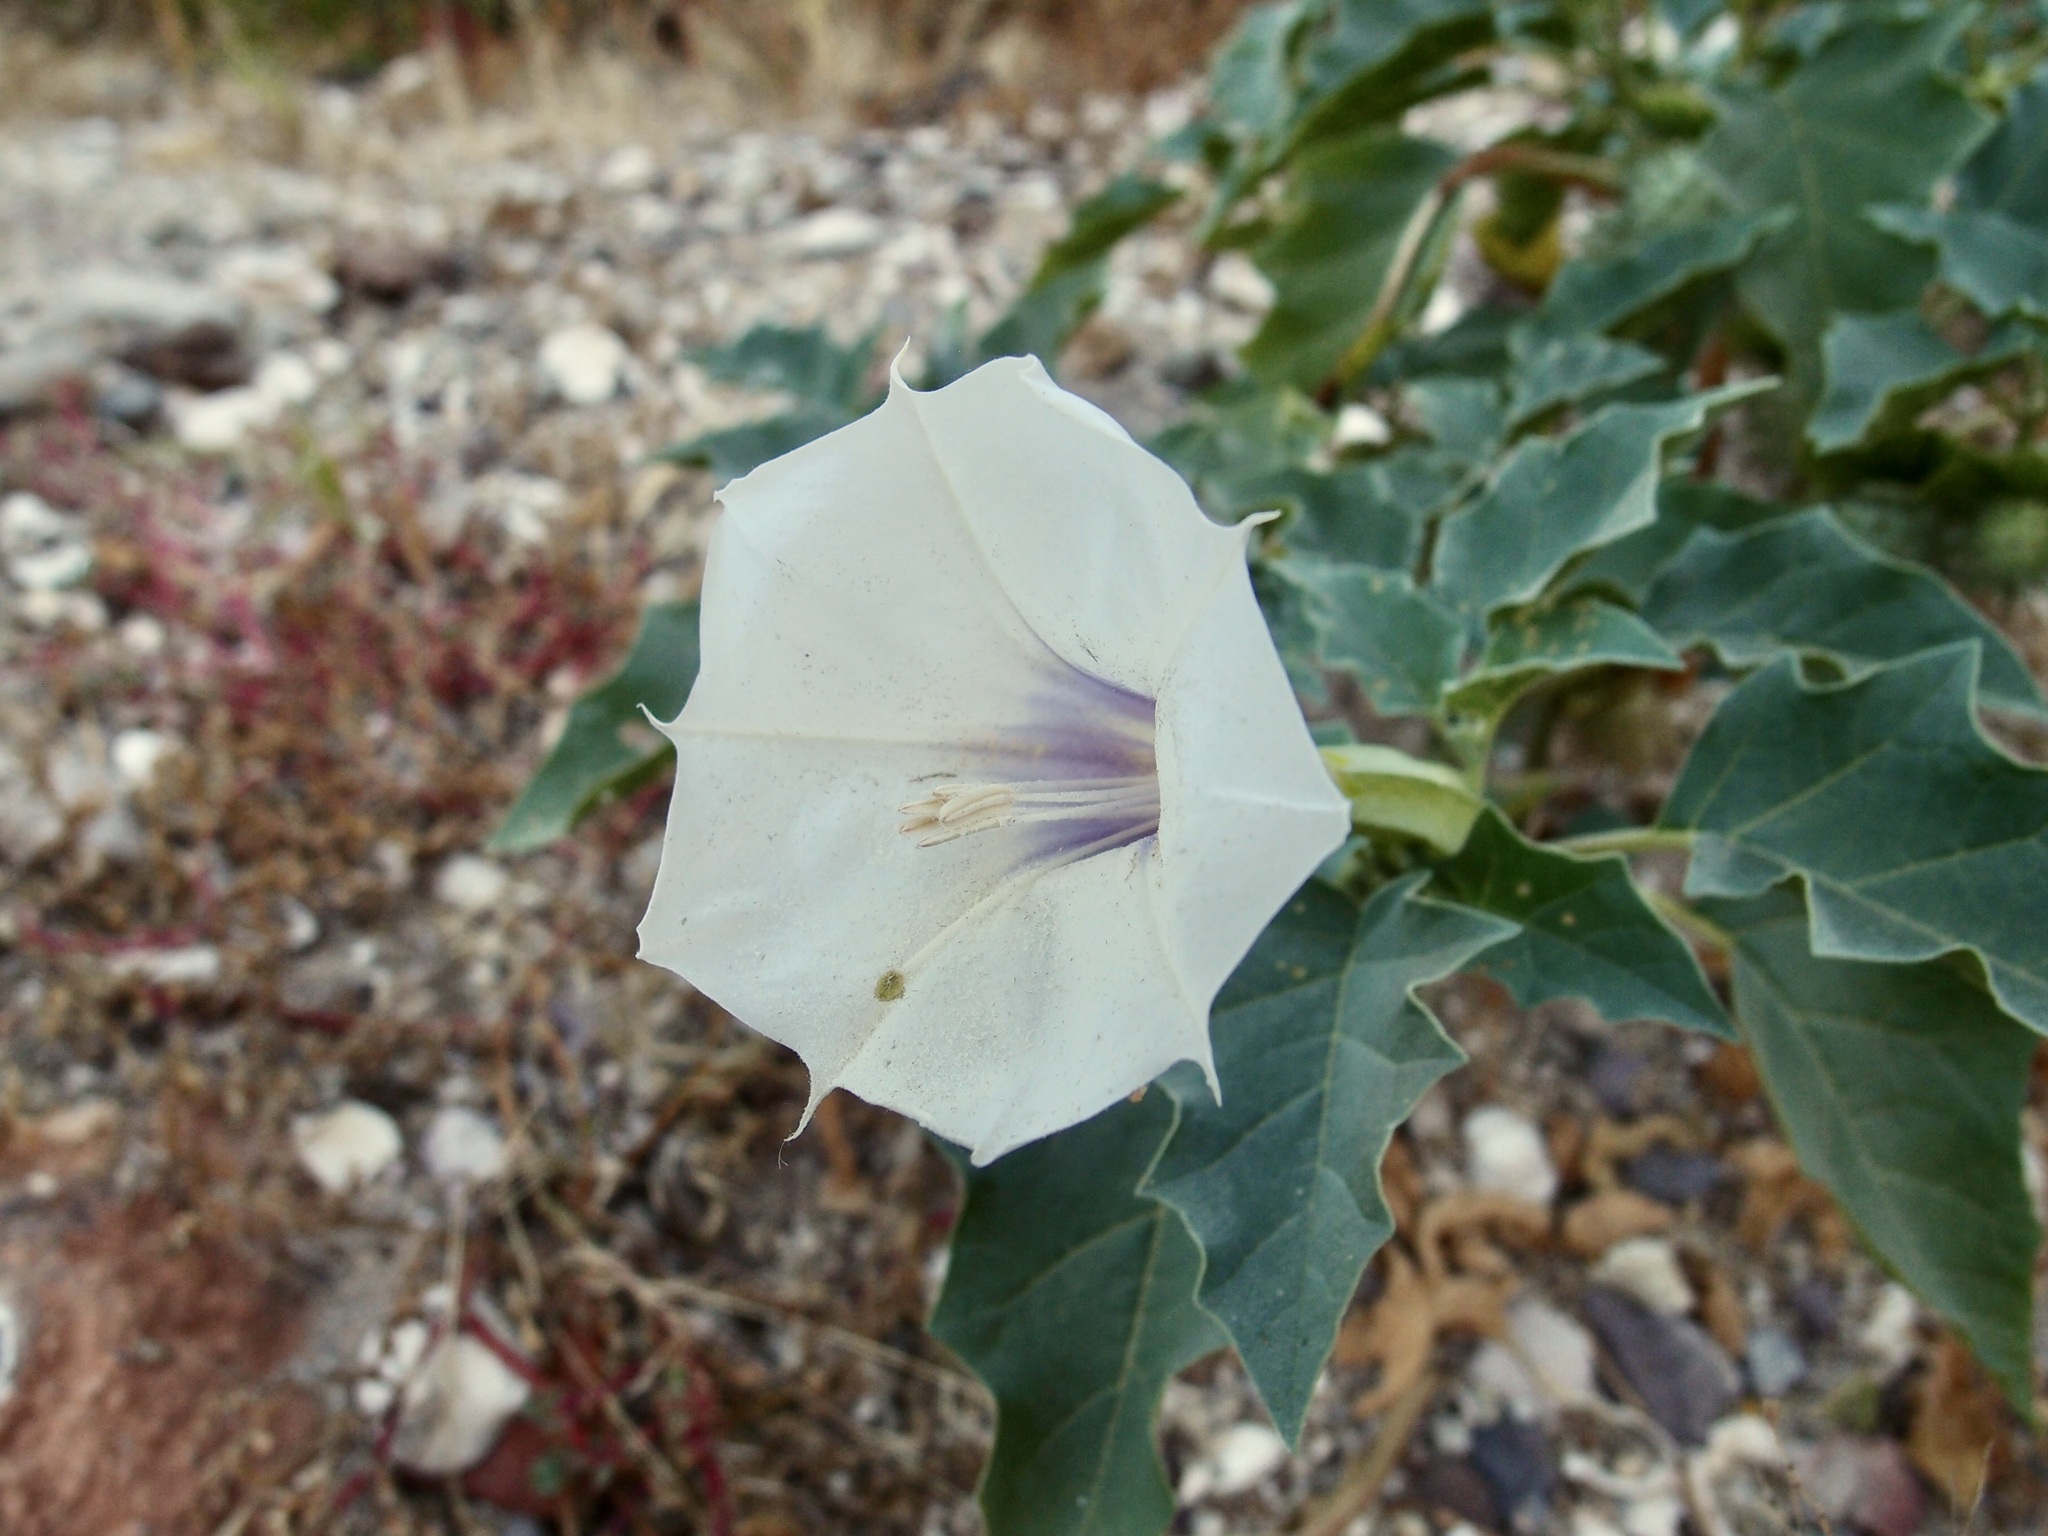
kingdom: Plantae
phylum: Tracheophyta
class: Magnoliopsida
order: Solanales
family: Solanaceae
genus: Datura
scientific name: Datura discolor
